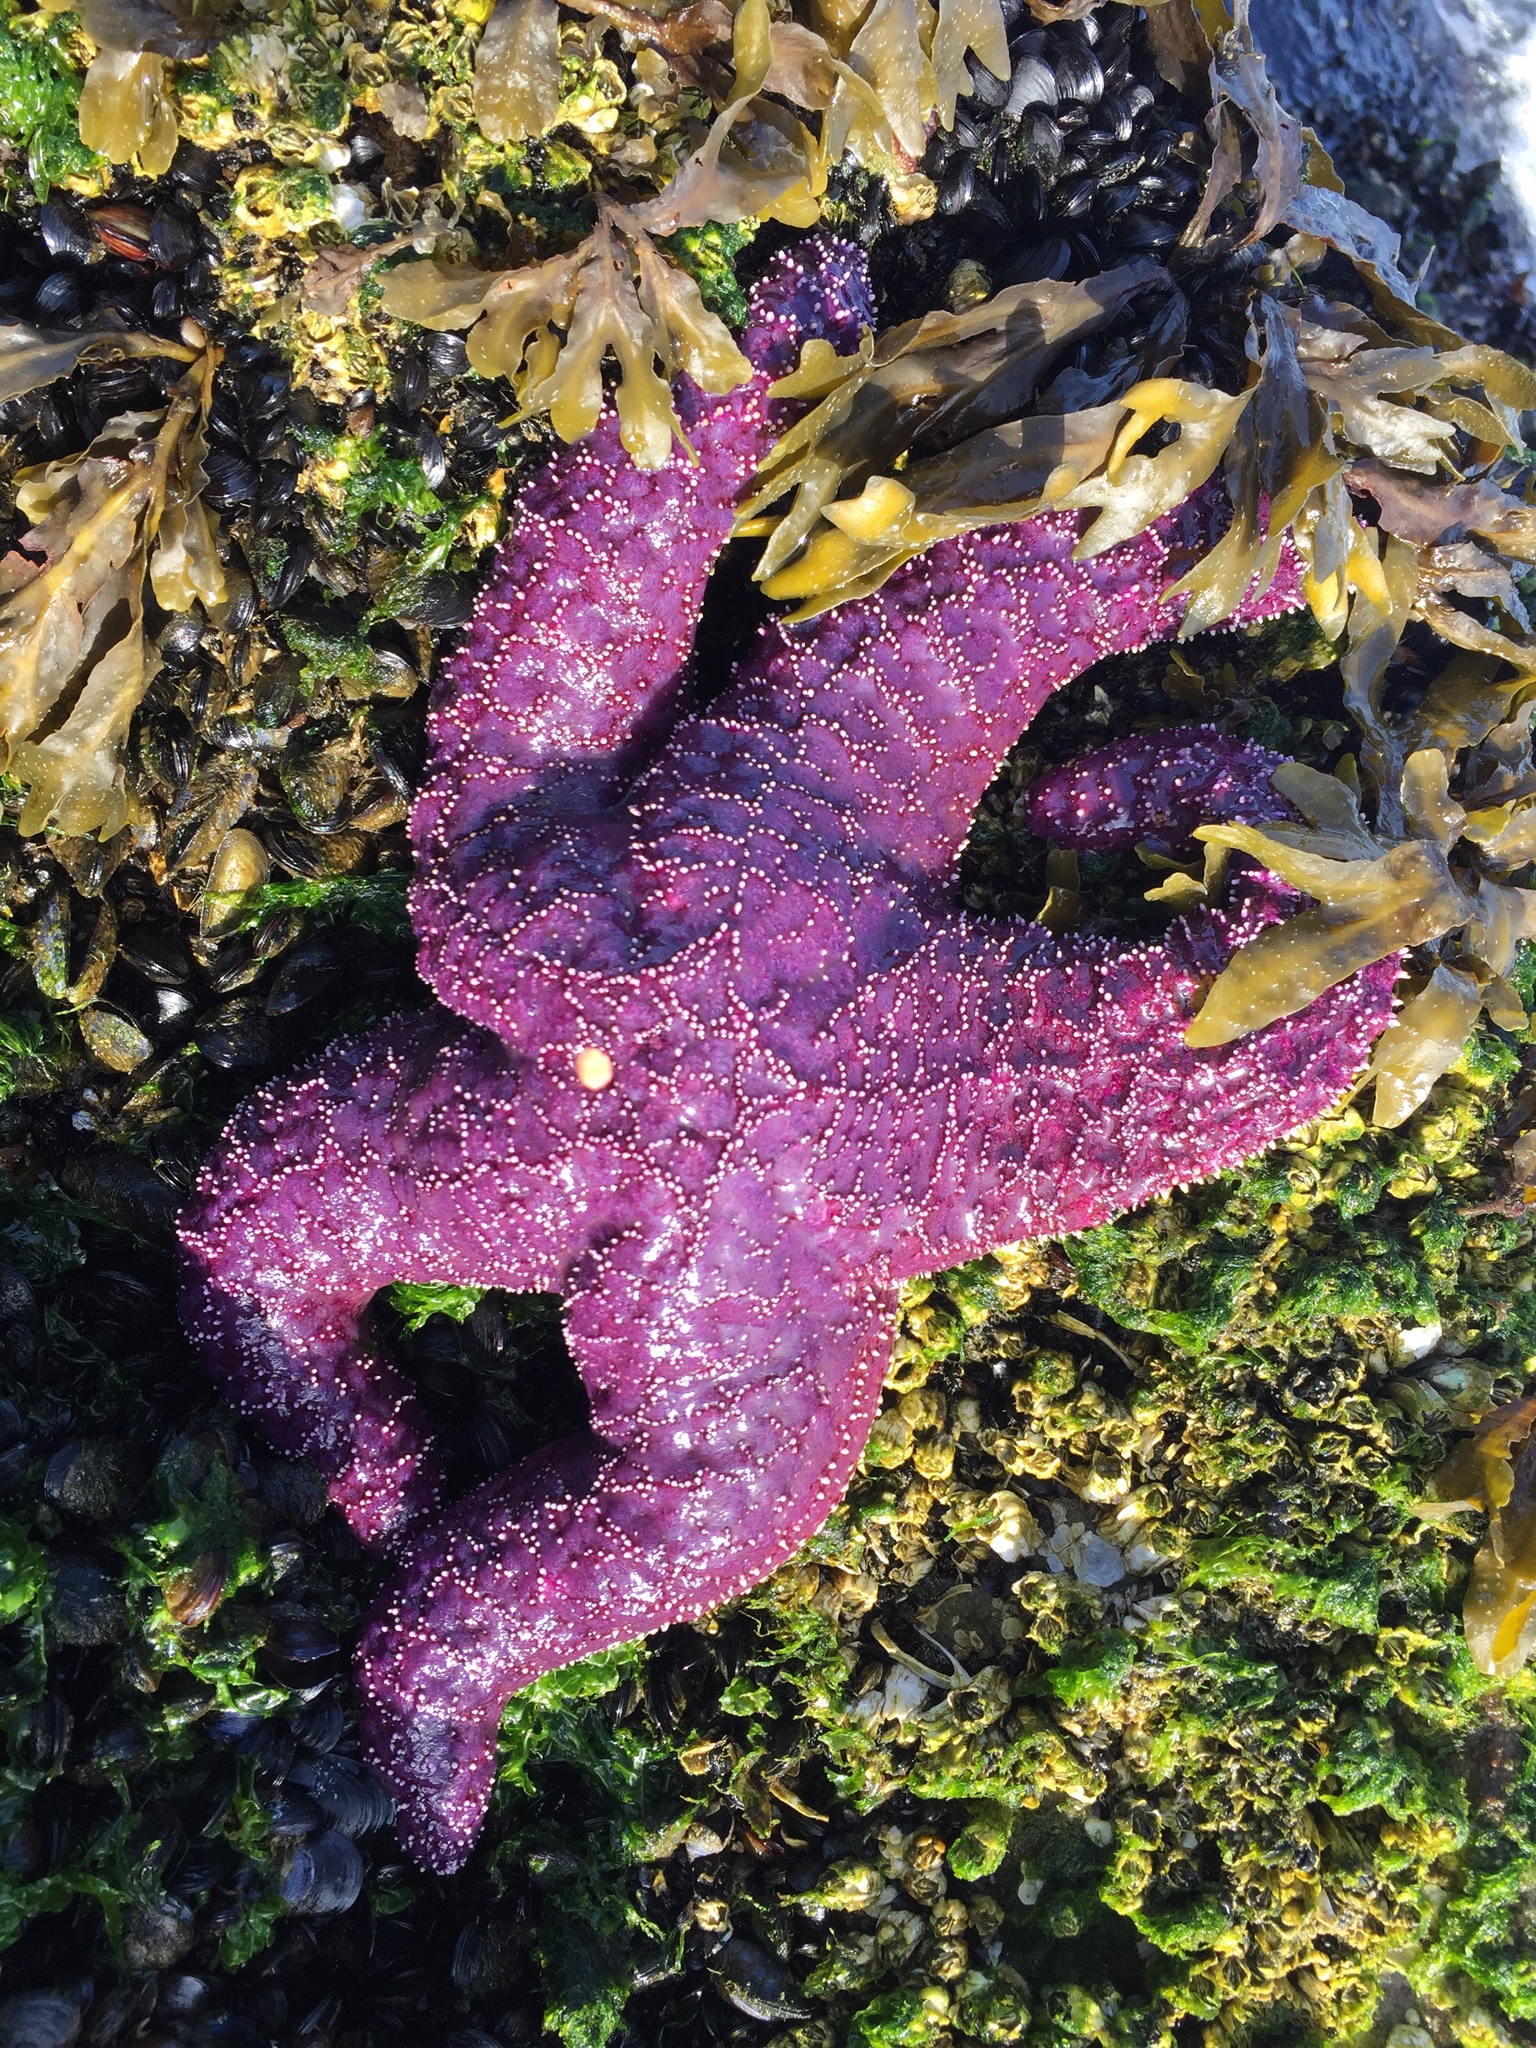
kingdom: Animalia
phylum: Echinodermata
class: Asteroidea
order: Forcipulatida
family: Asteriidae
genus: Pisaster
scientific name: Pisaster ochraceus
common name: Ochre stars
